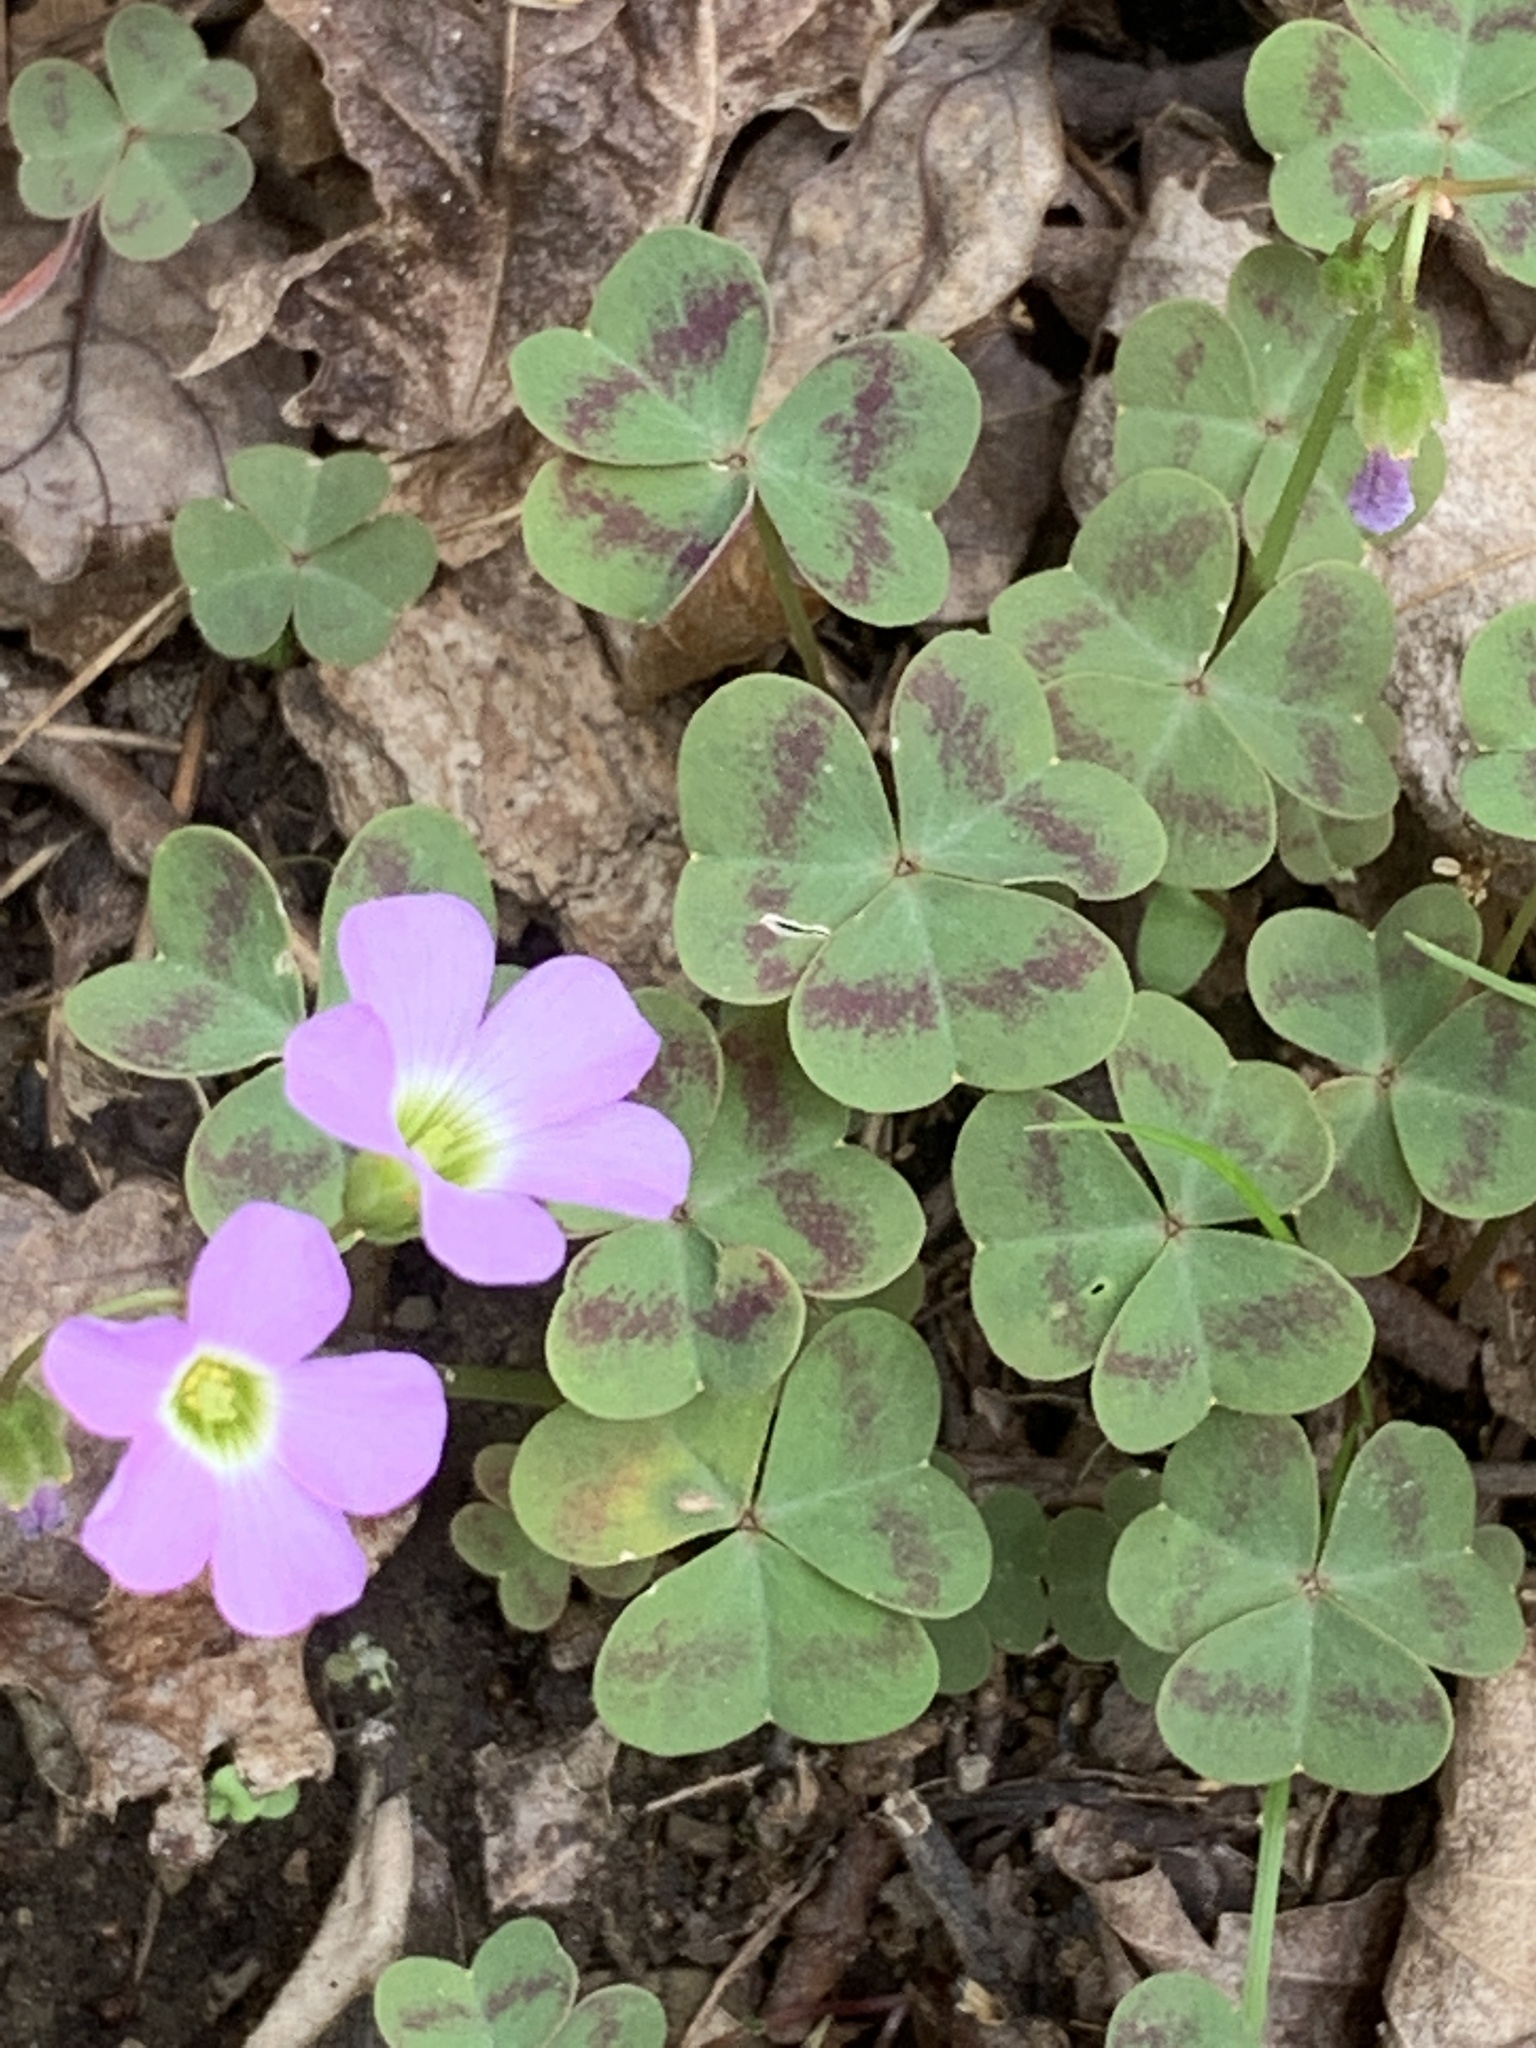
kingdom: Plantae
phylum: Tracheophyta
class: Magnoliopsida
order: Oxalidales
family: Oxalidaceae
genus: Oxalis
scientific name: Oxalis violacea
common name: Violet wood-sorrel
